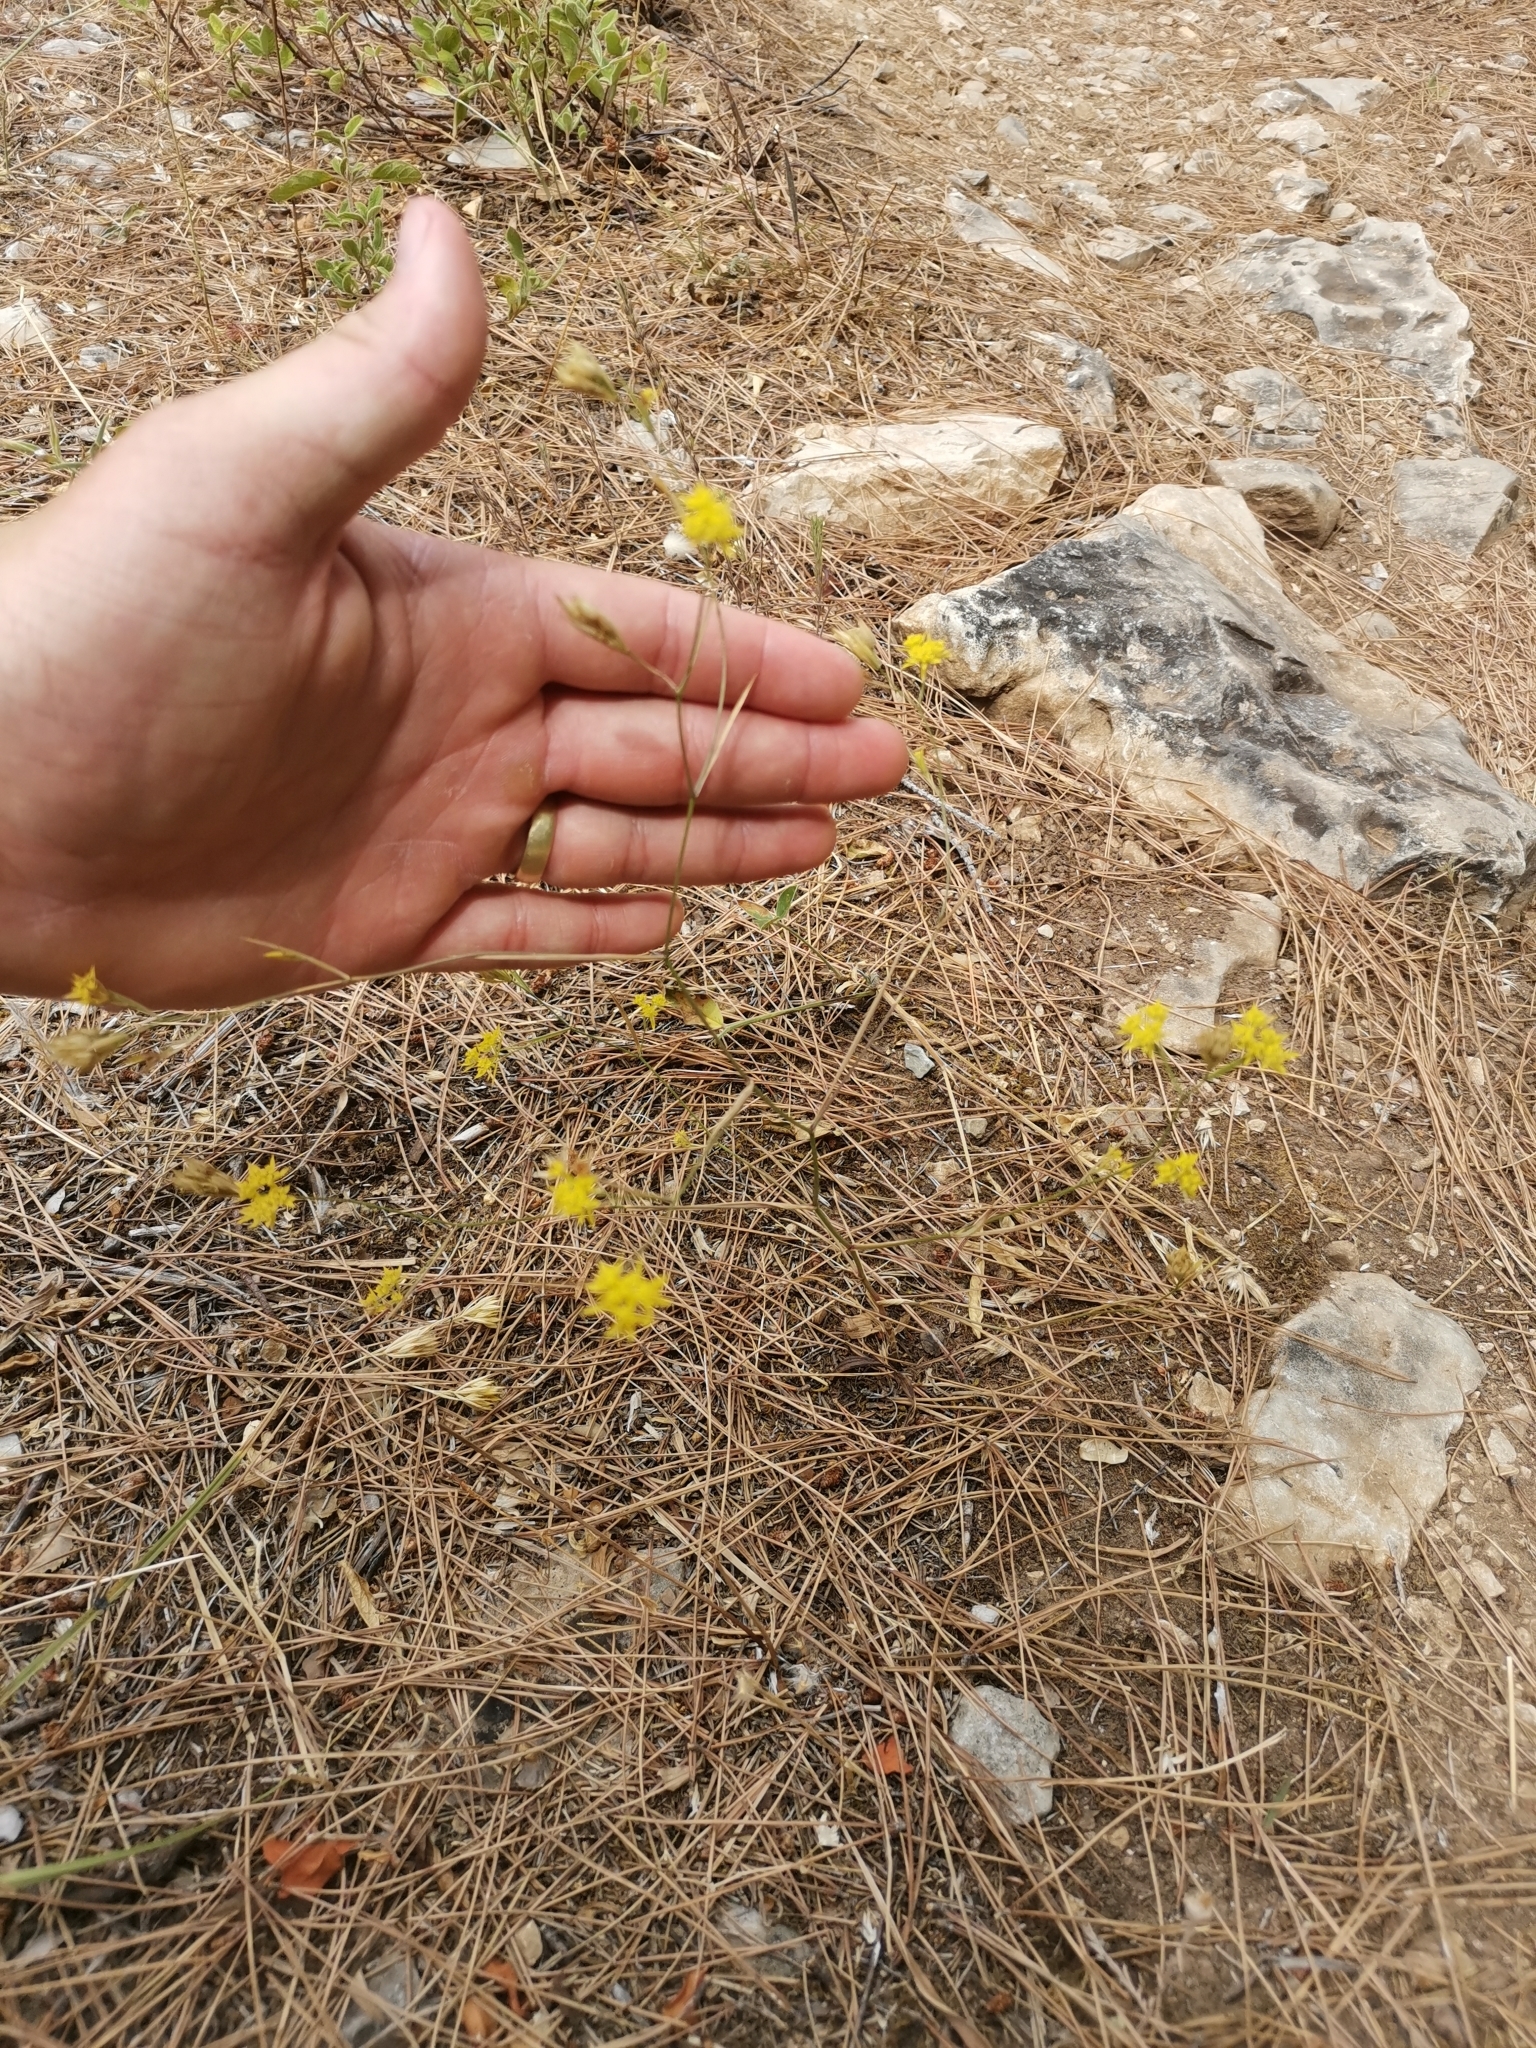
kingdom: Plantae
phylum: Tracheophyta
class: Magnoliopsida
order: Apiales
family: Apiaceae
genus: Bupleurum
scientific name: Bupleurum veronense
